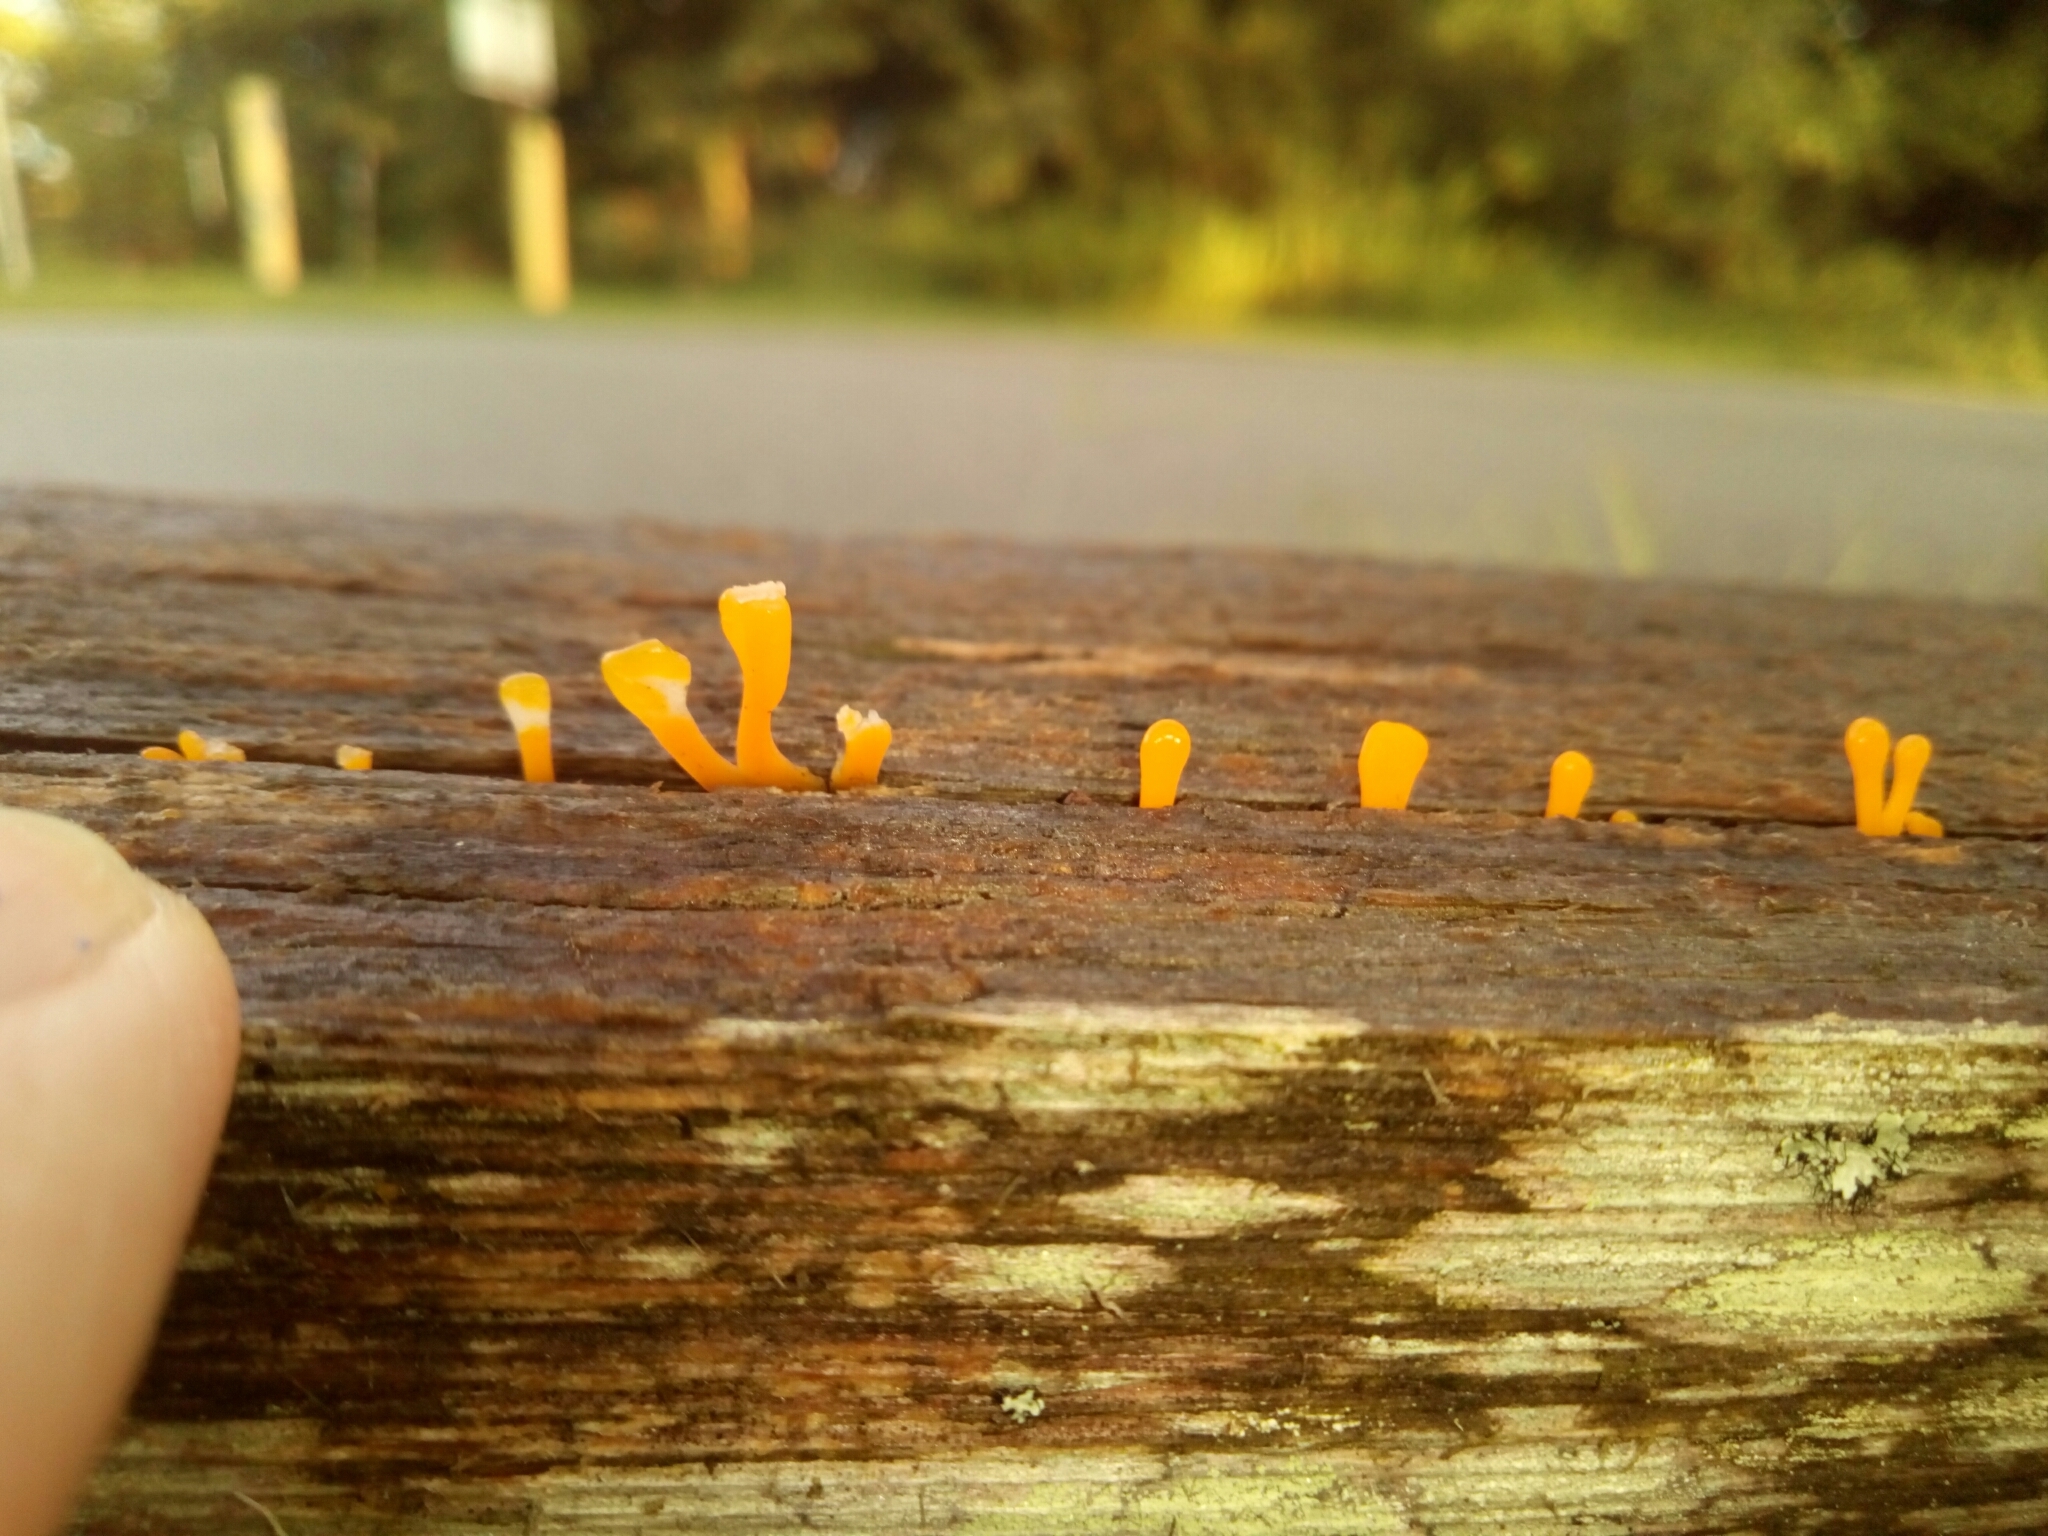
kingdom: Fungi
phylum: Basidiomycota
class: Dacrymycetes
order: Dacrymycetales
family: Dacrymycetaceae
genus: Dacrymyces
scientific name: Dacrymyces spathularius
